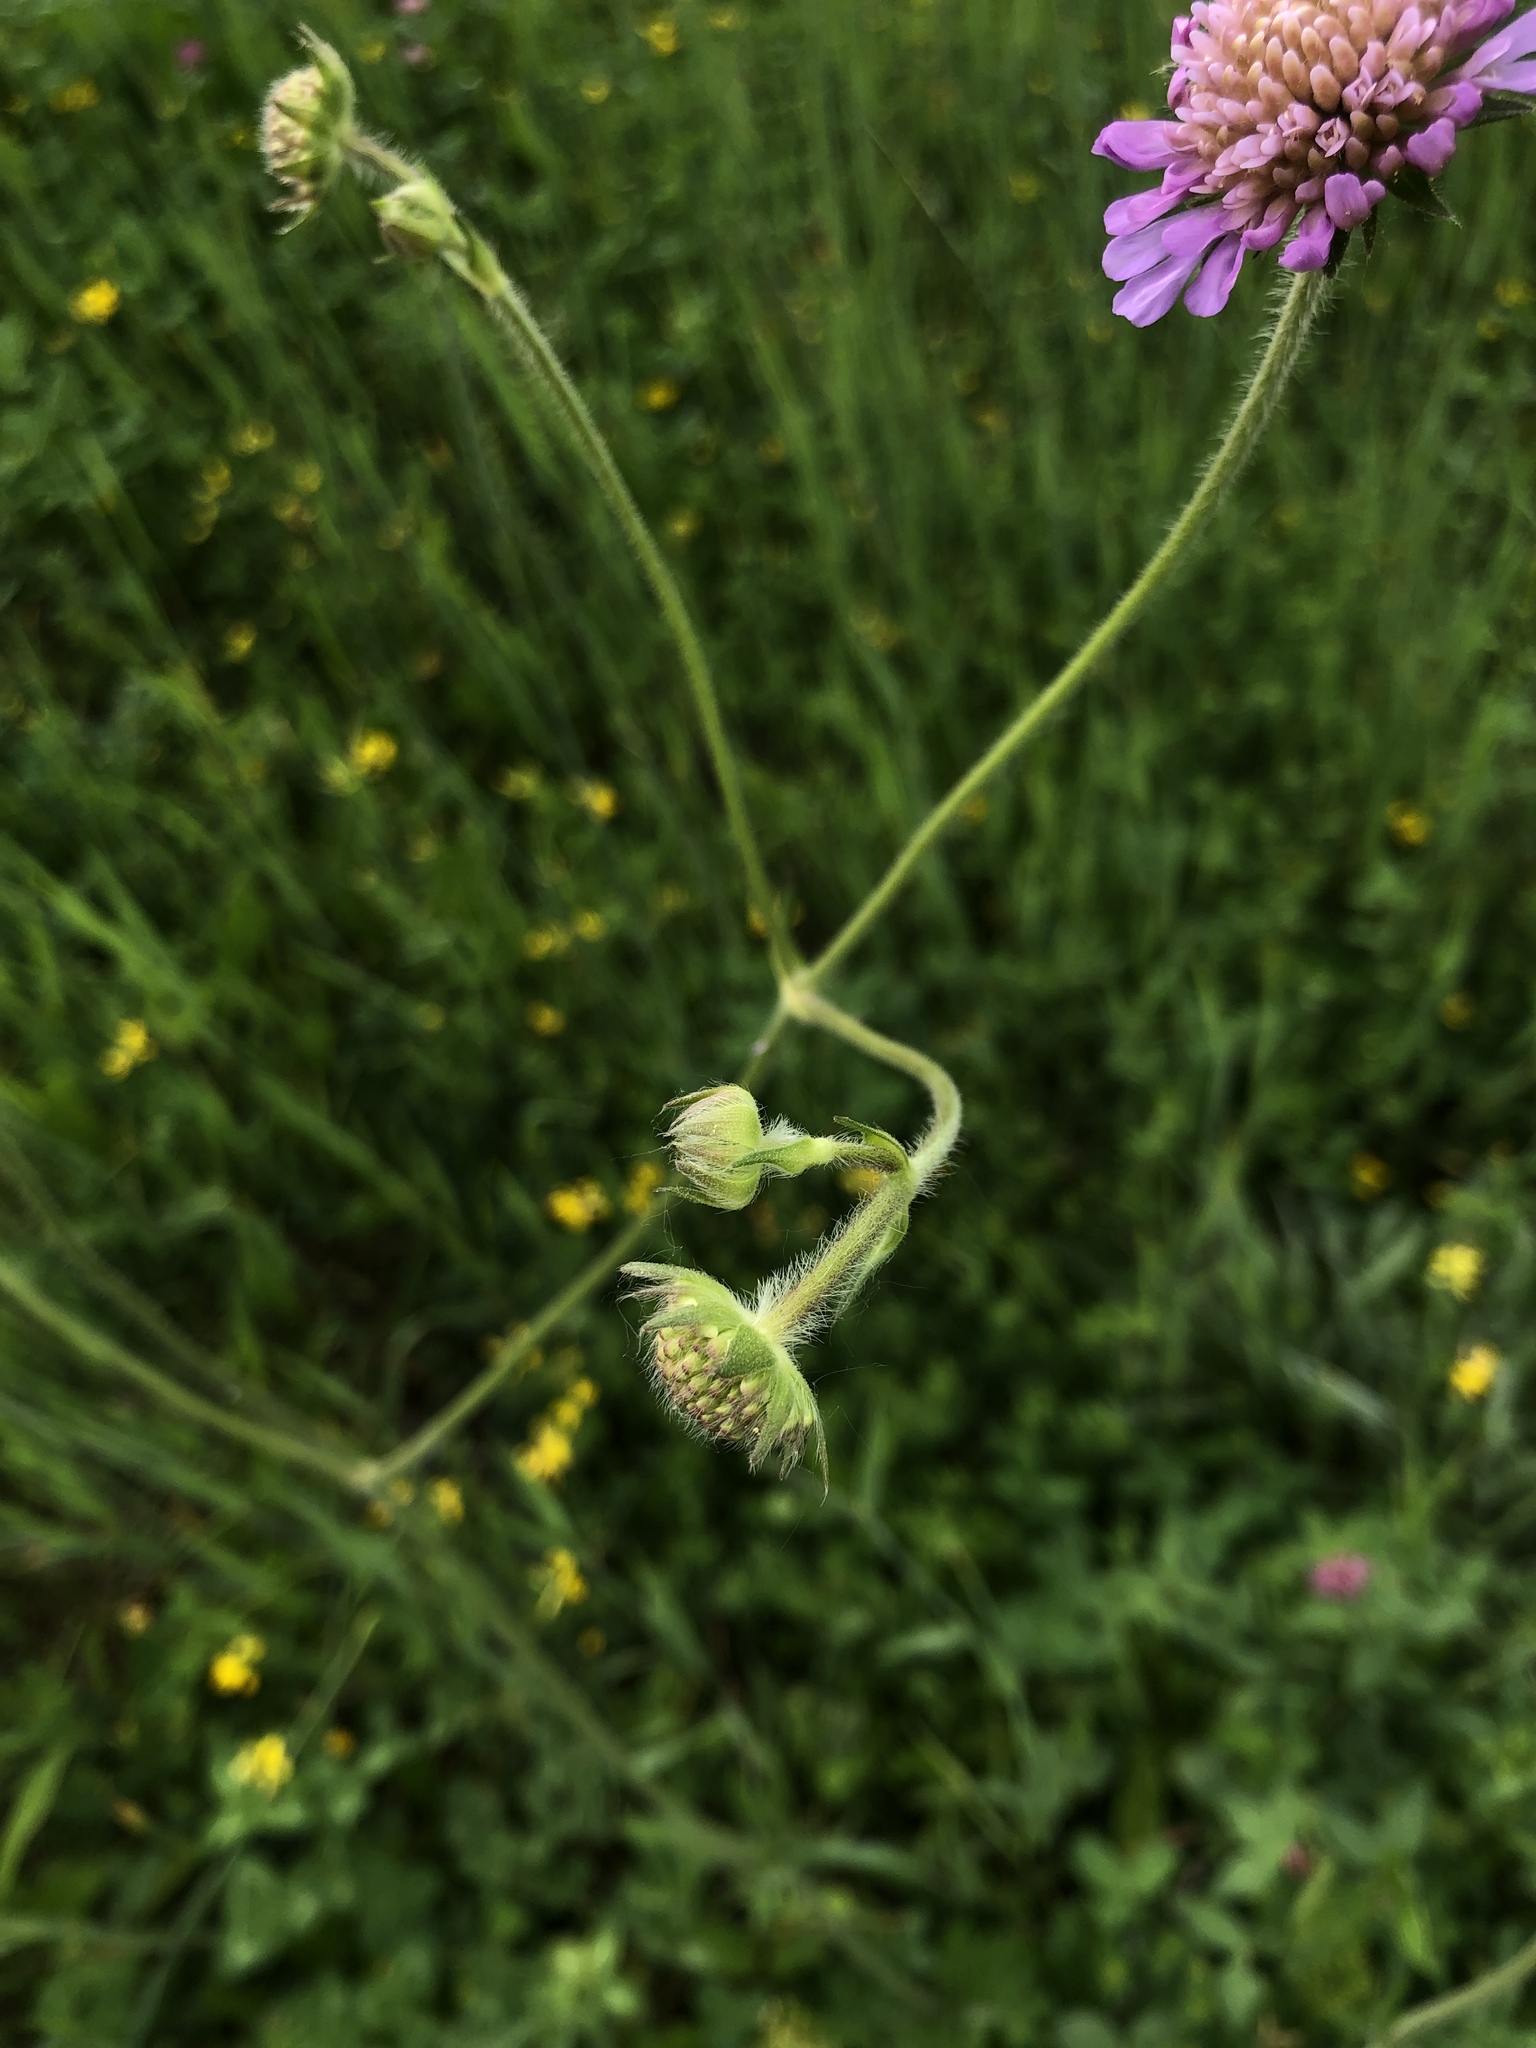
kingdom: Plantae
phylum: Tracheophyta
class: Magnoliopsida
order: Dipsacales
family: Caprifoliaceae
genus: Knautia
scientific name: Knautia arvensis
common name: Field scabiosa
